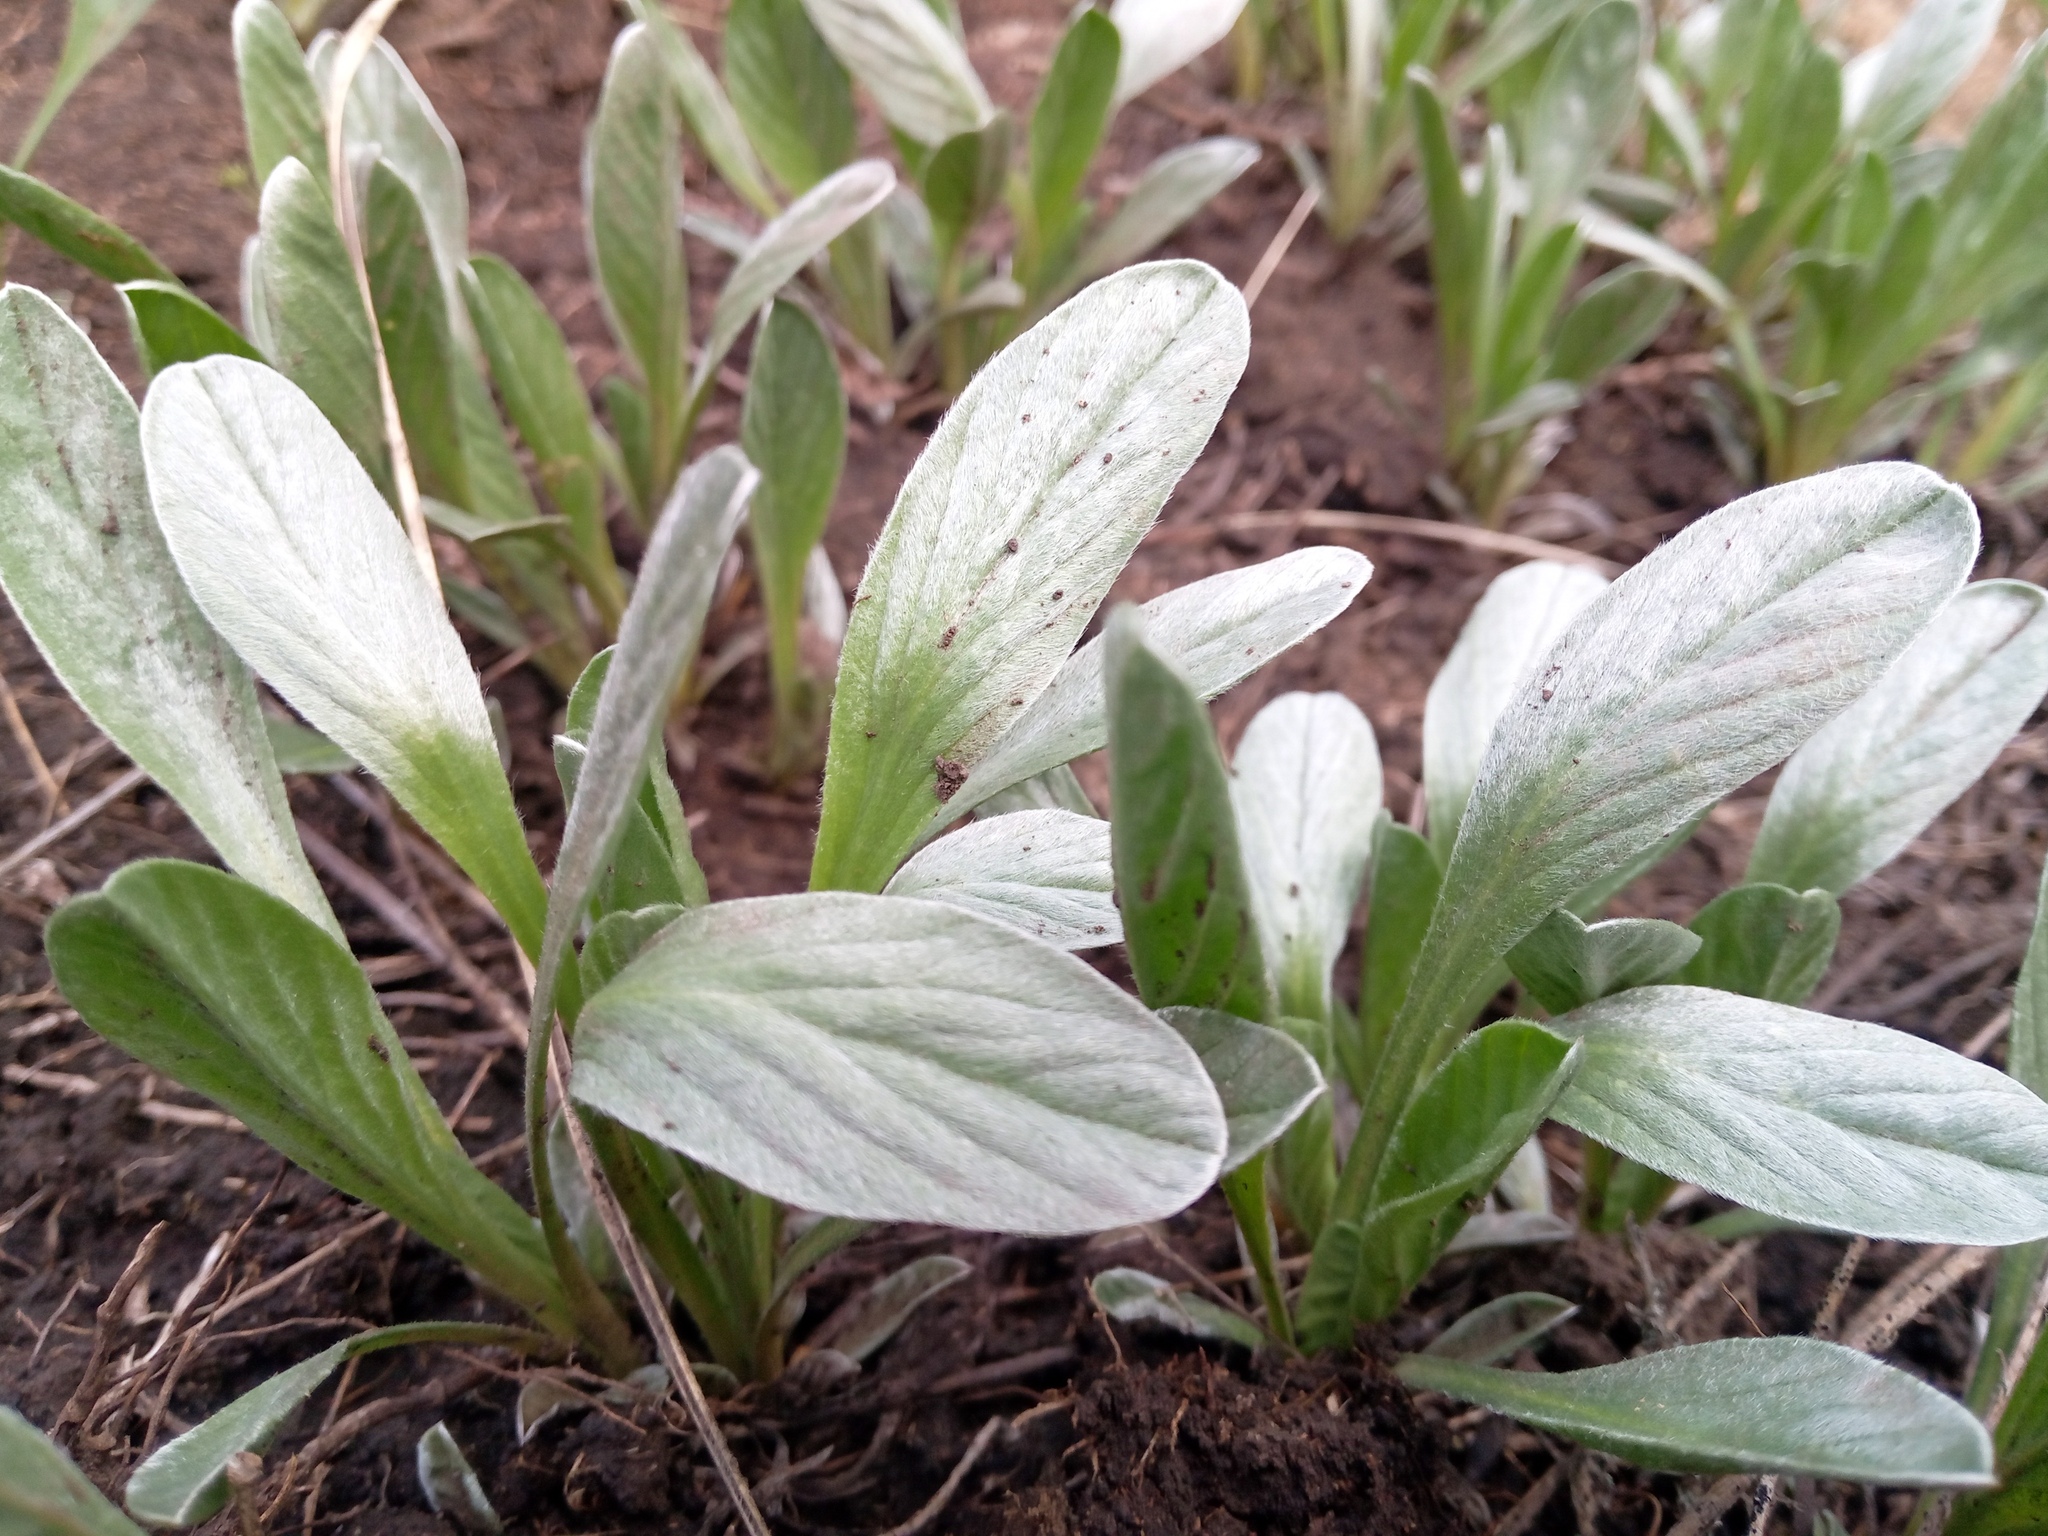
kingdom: Plantae
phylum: Tracheophyta
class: Magnoliopsida
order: Solanales
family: Convolvulaceae
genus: Convolvulus
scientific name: Convolvulus lineatus
